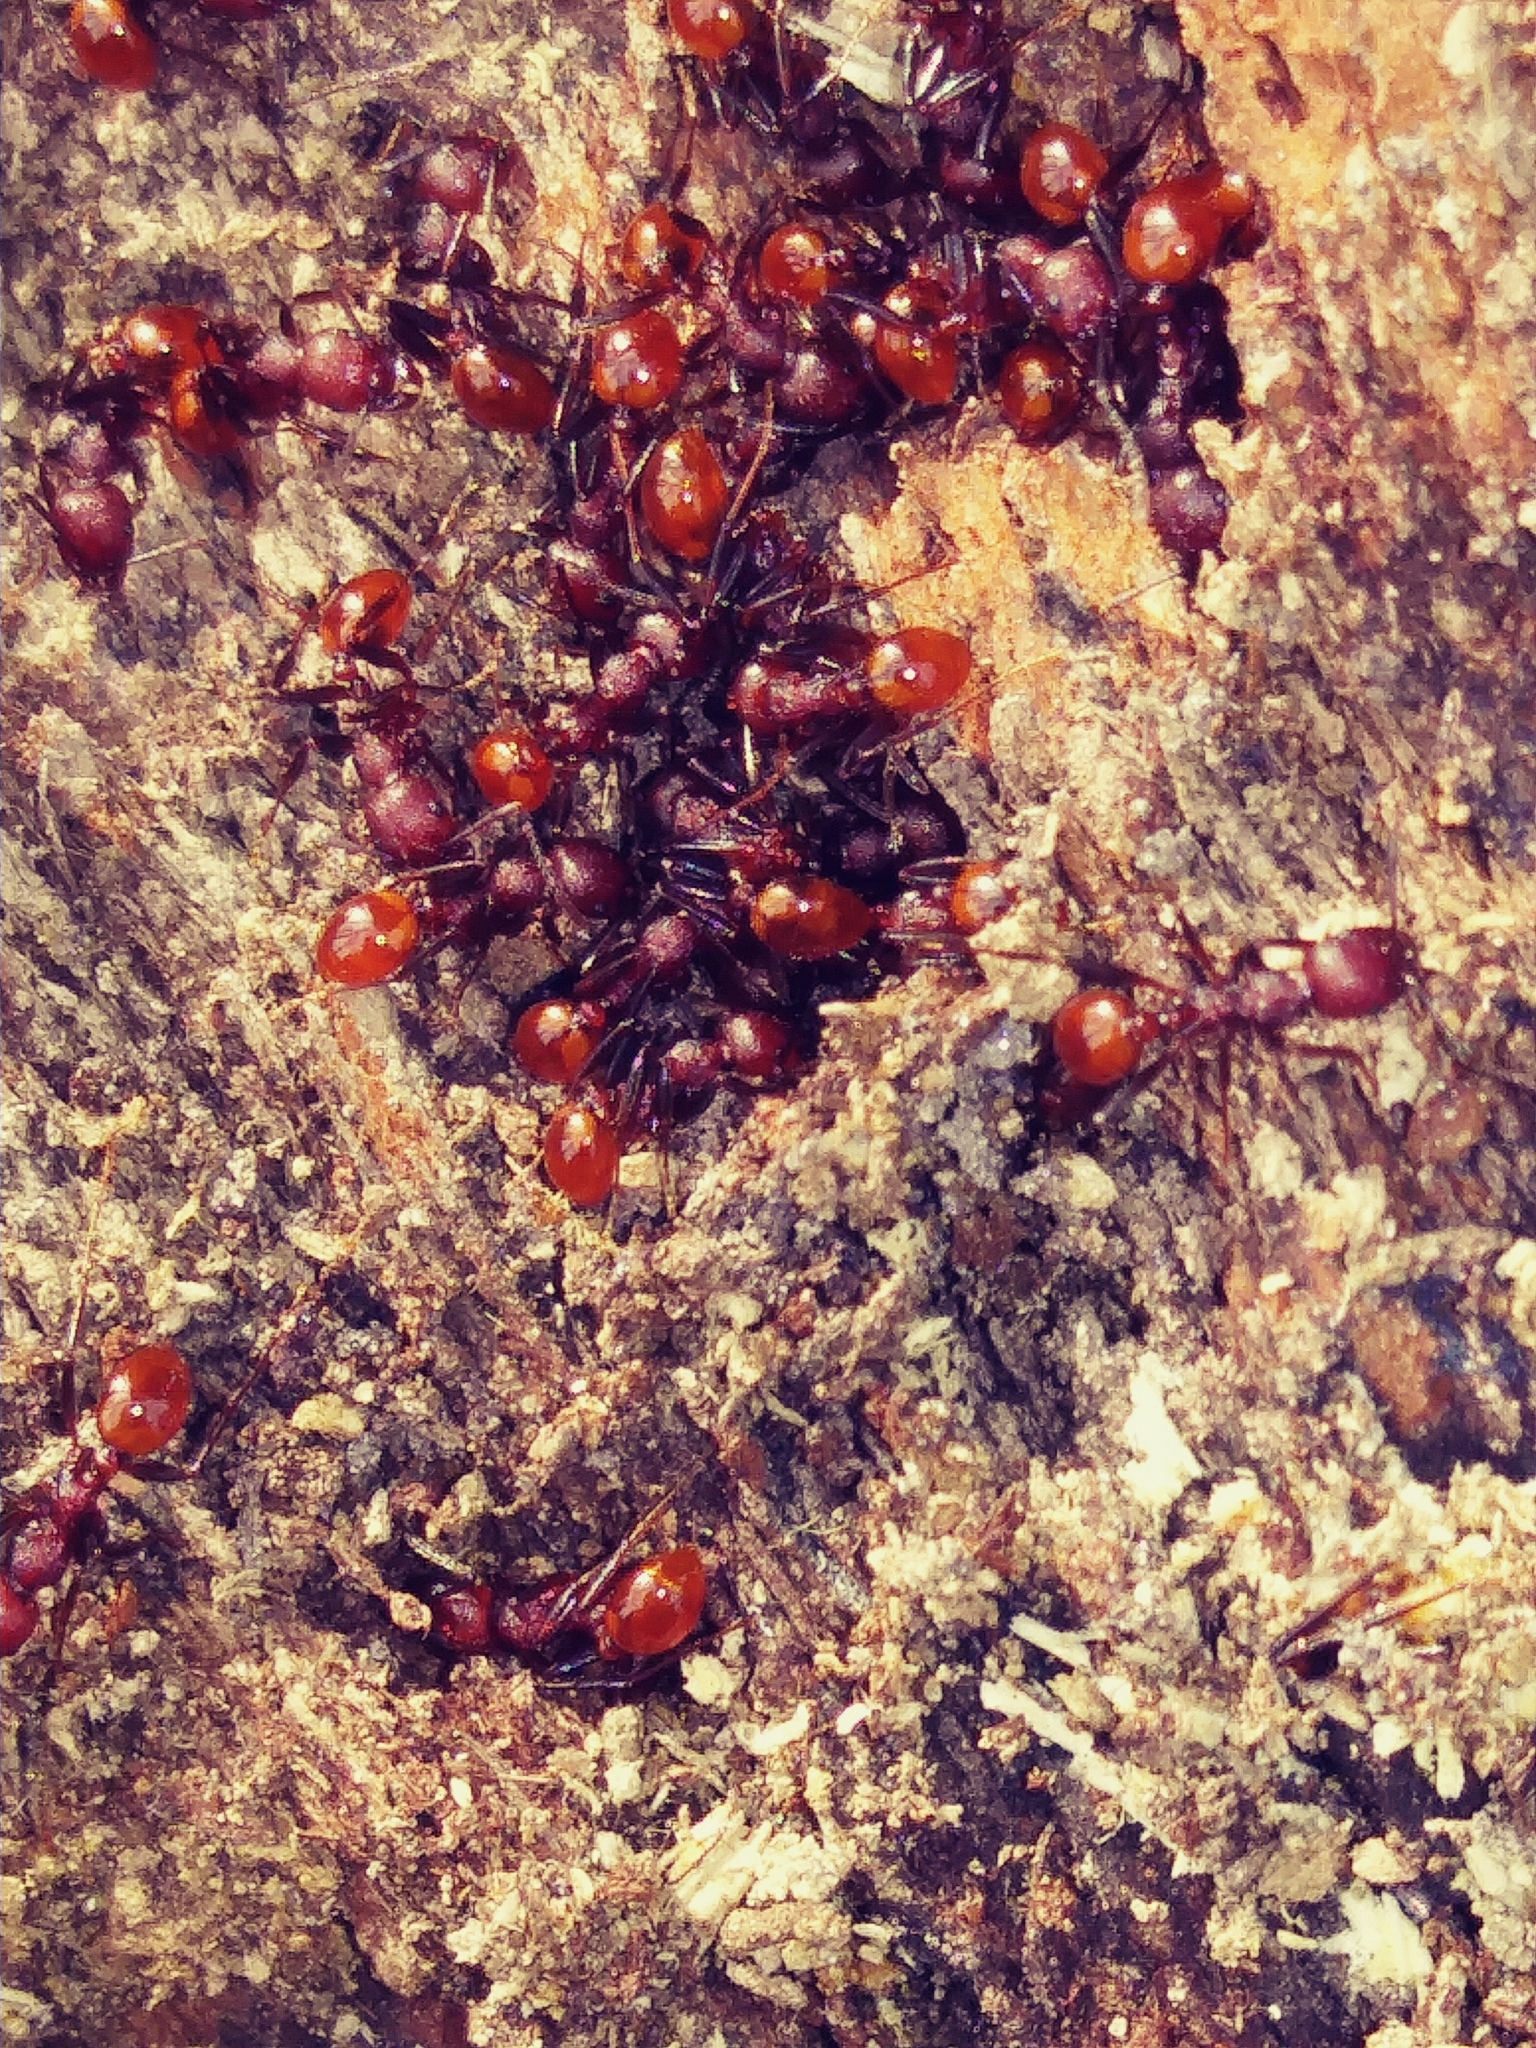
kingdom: Animalia
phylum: Arthropoda
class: Insecta
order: Hymenoptera
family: Formicidae
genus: Aphaenogaster
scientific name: Aphaenogaster tennesseensis
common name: Tennessee thread-waisted ant
